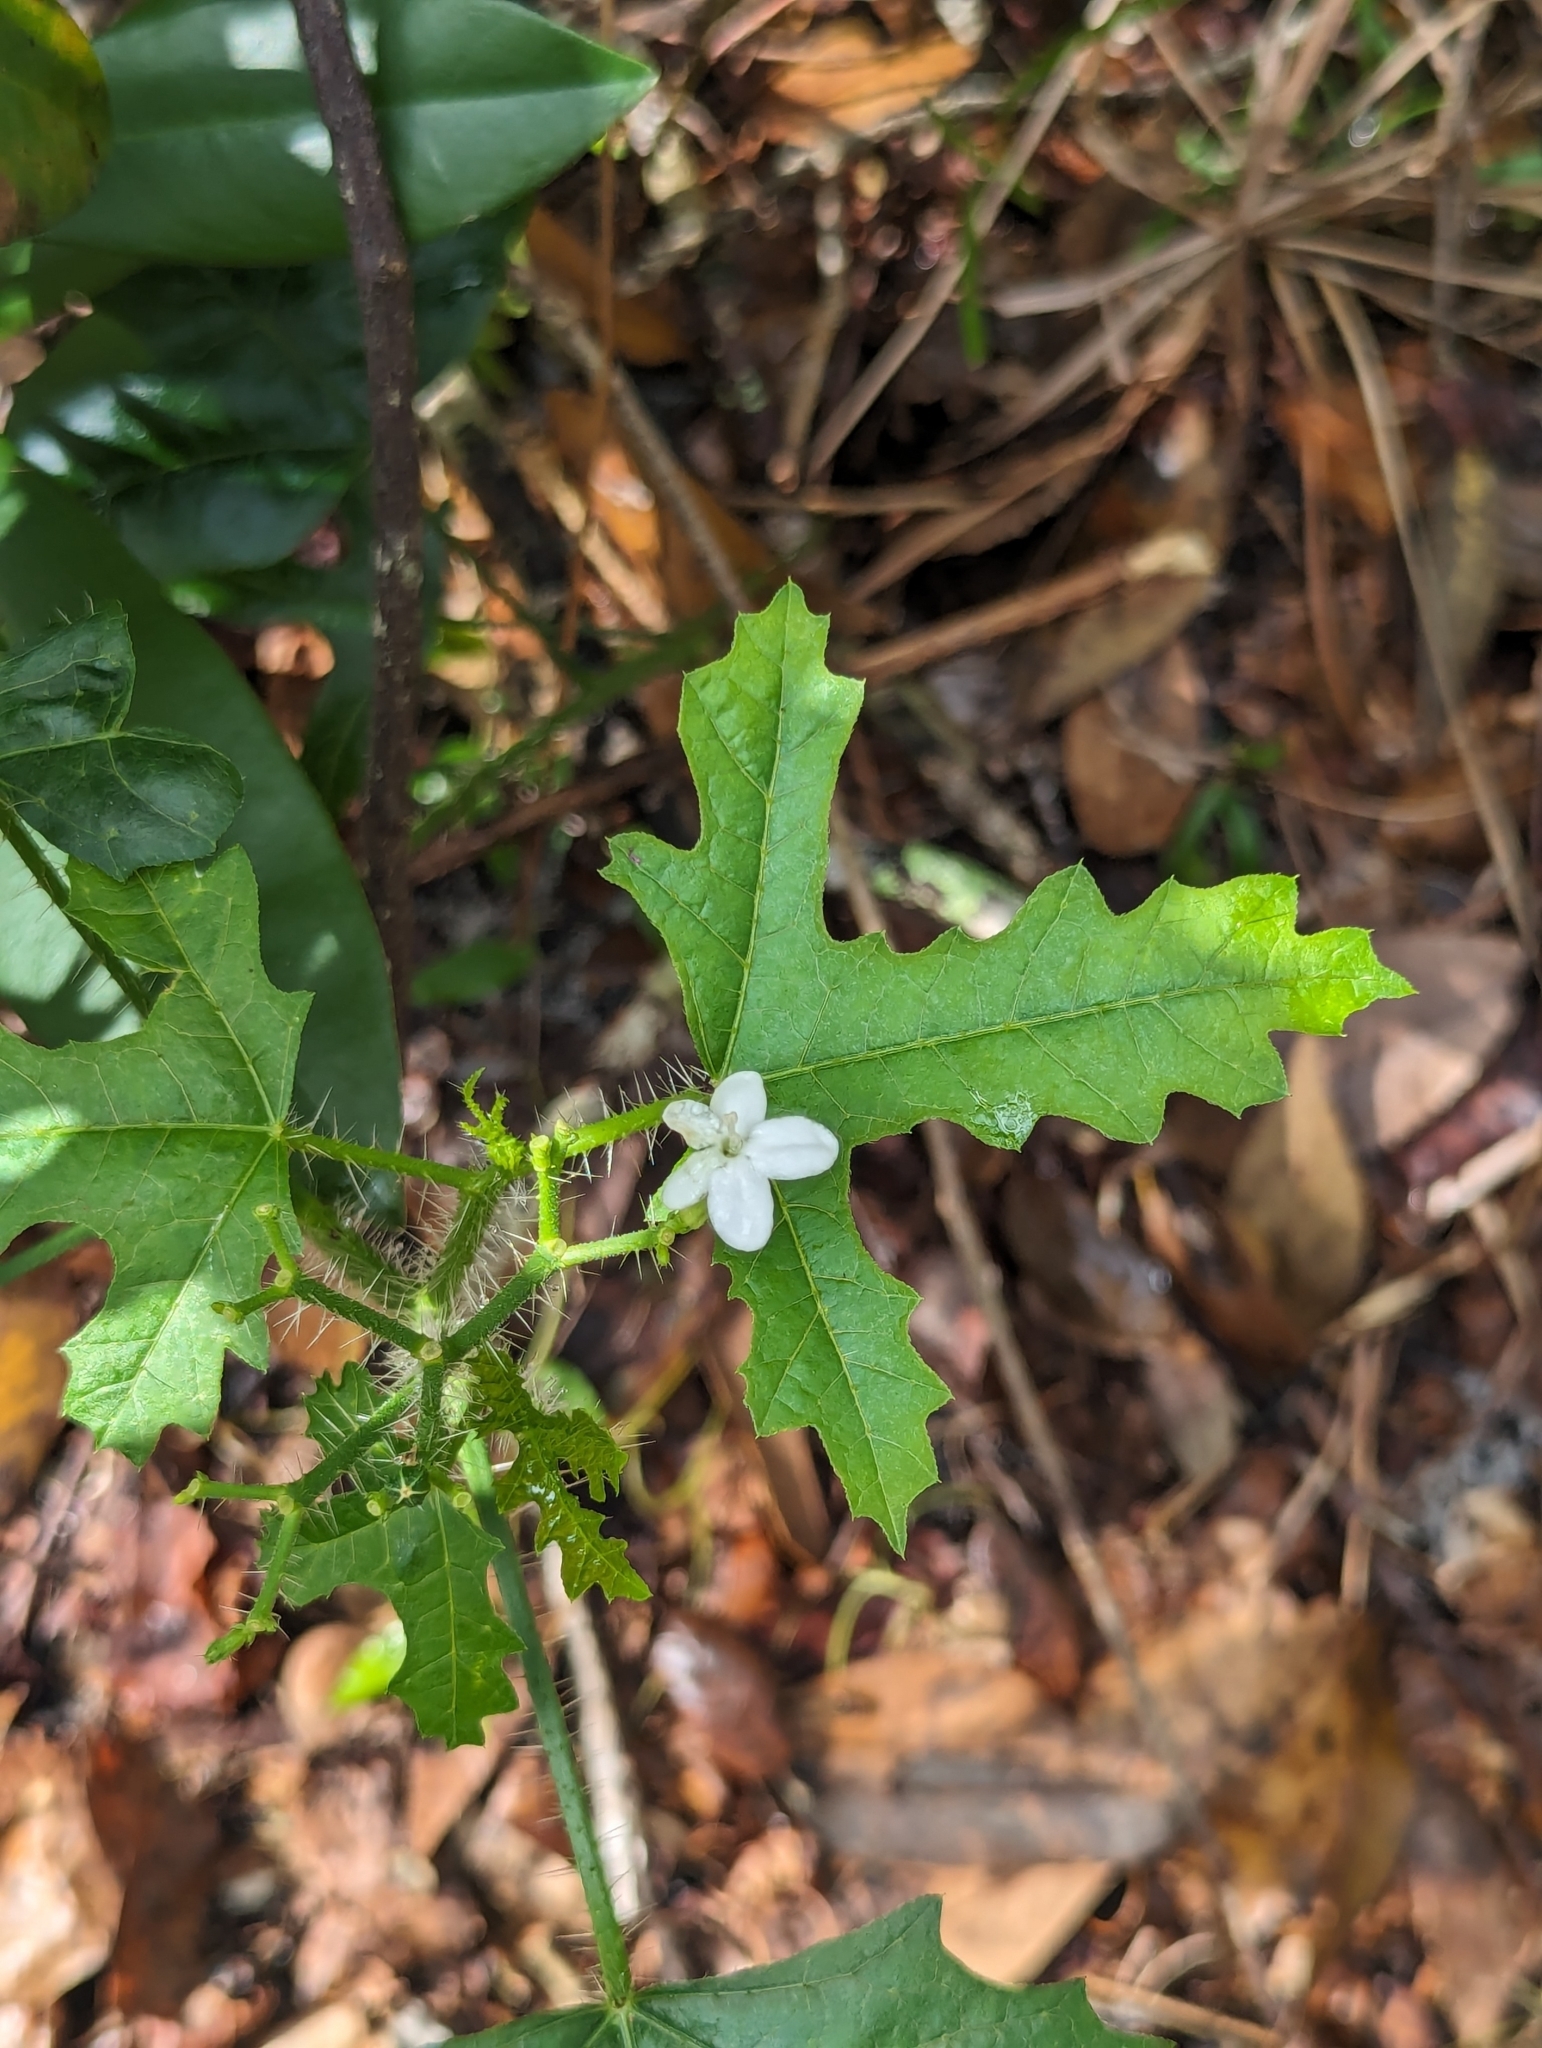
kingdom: Plantae
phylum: Tracheophyta
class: Magnoliopsida
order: Malpighiales
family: Euphorbiaceae
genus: Cnidoscolus
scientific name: Cnidoscolus stimulosus
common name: Bull-nettle
